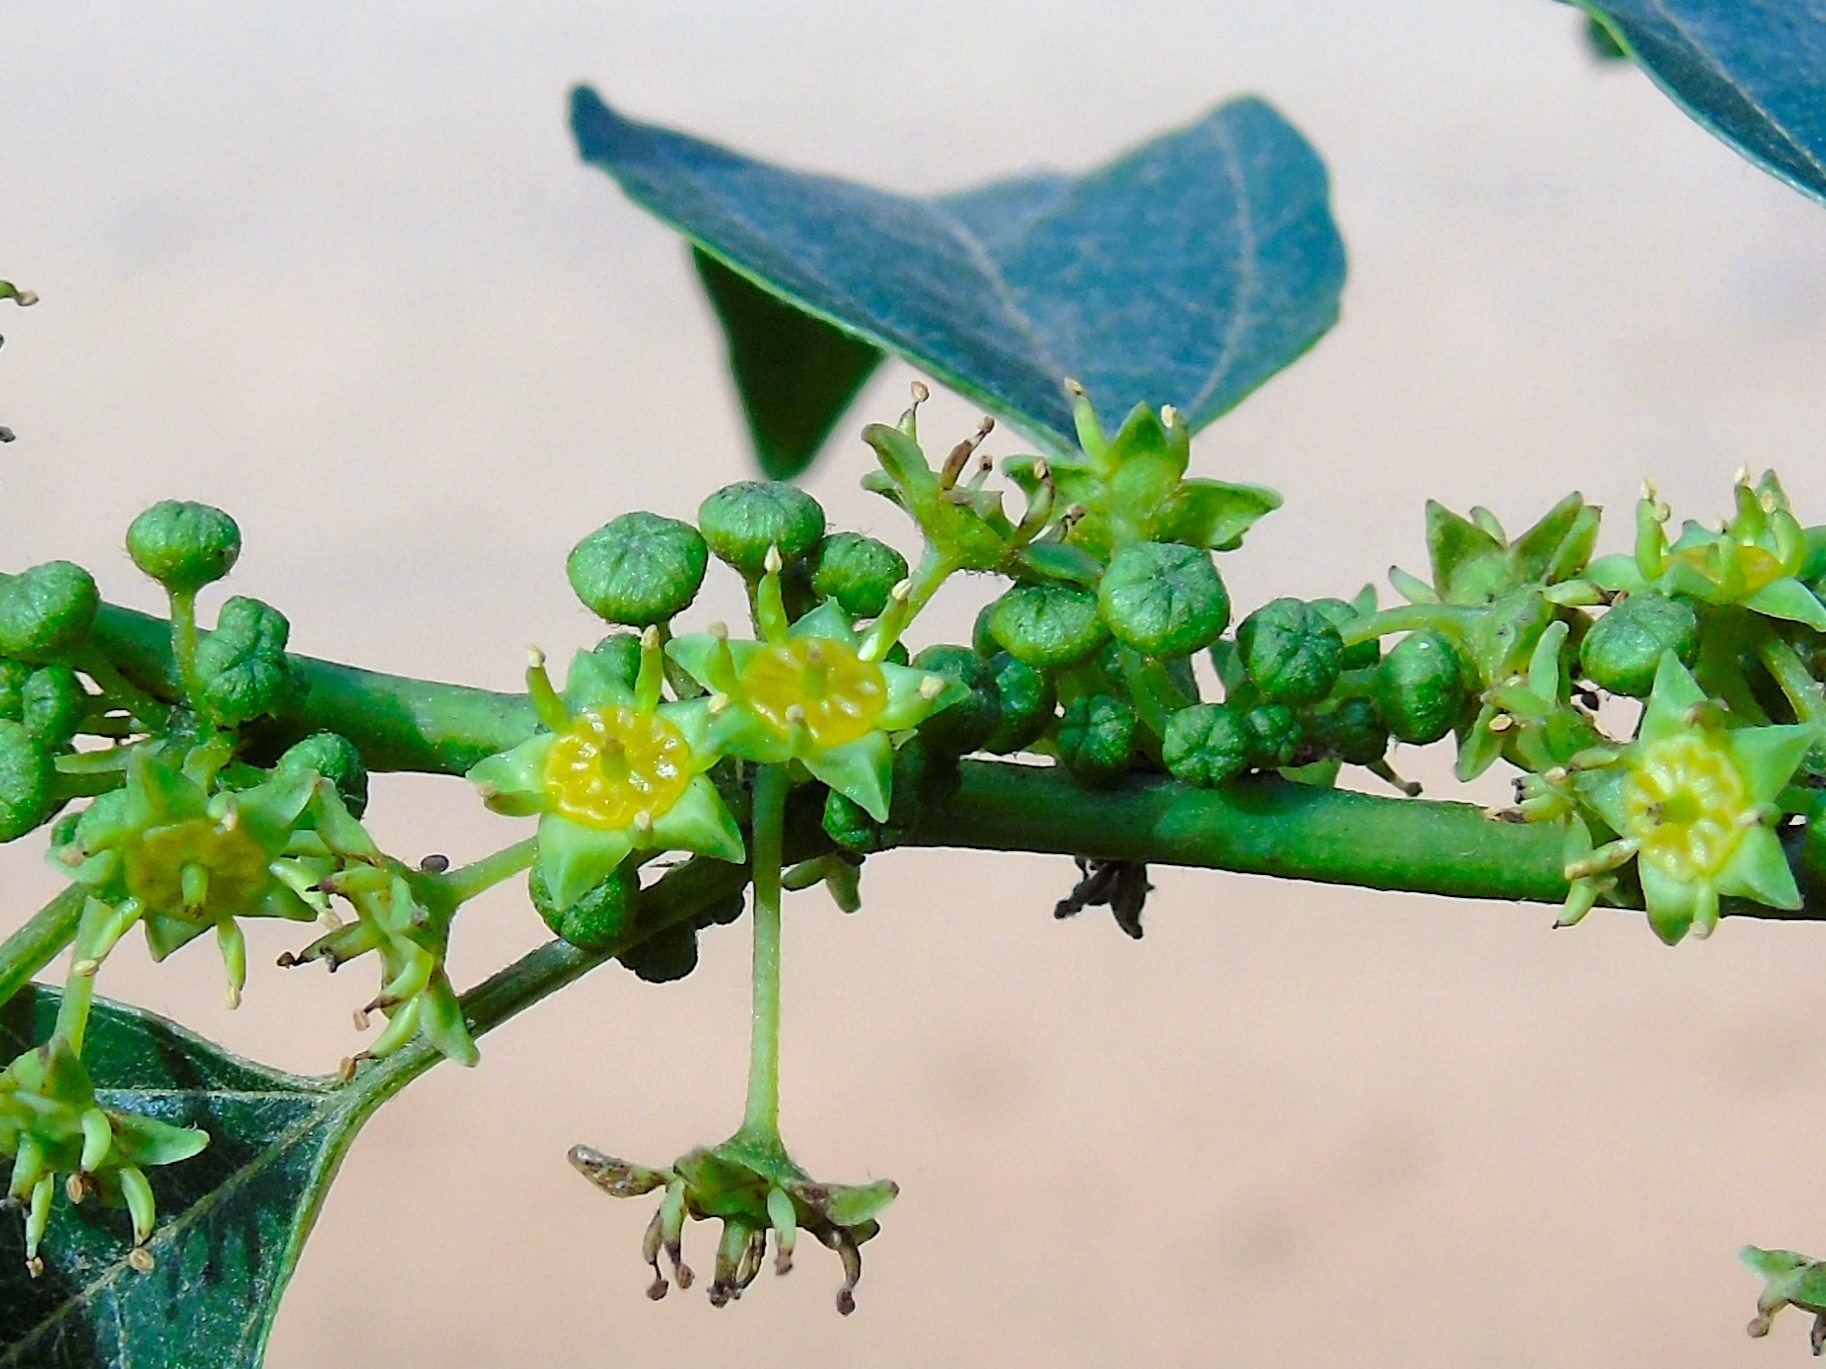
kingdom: Plantae
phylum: Tracheophyta
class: Magnoliopsida
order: Rosales
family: Rhamnaceae
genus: Colubrina
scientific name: Colubrina triflora
